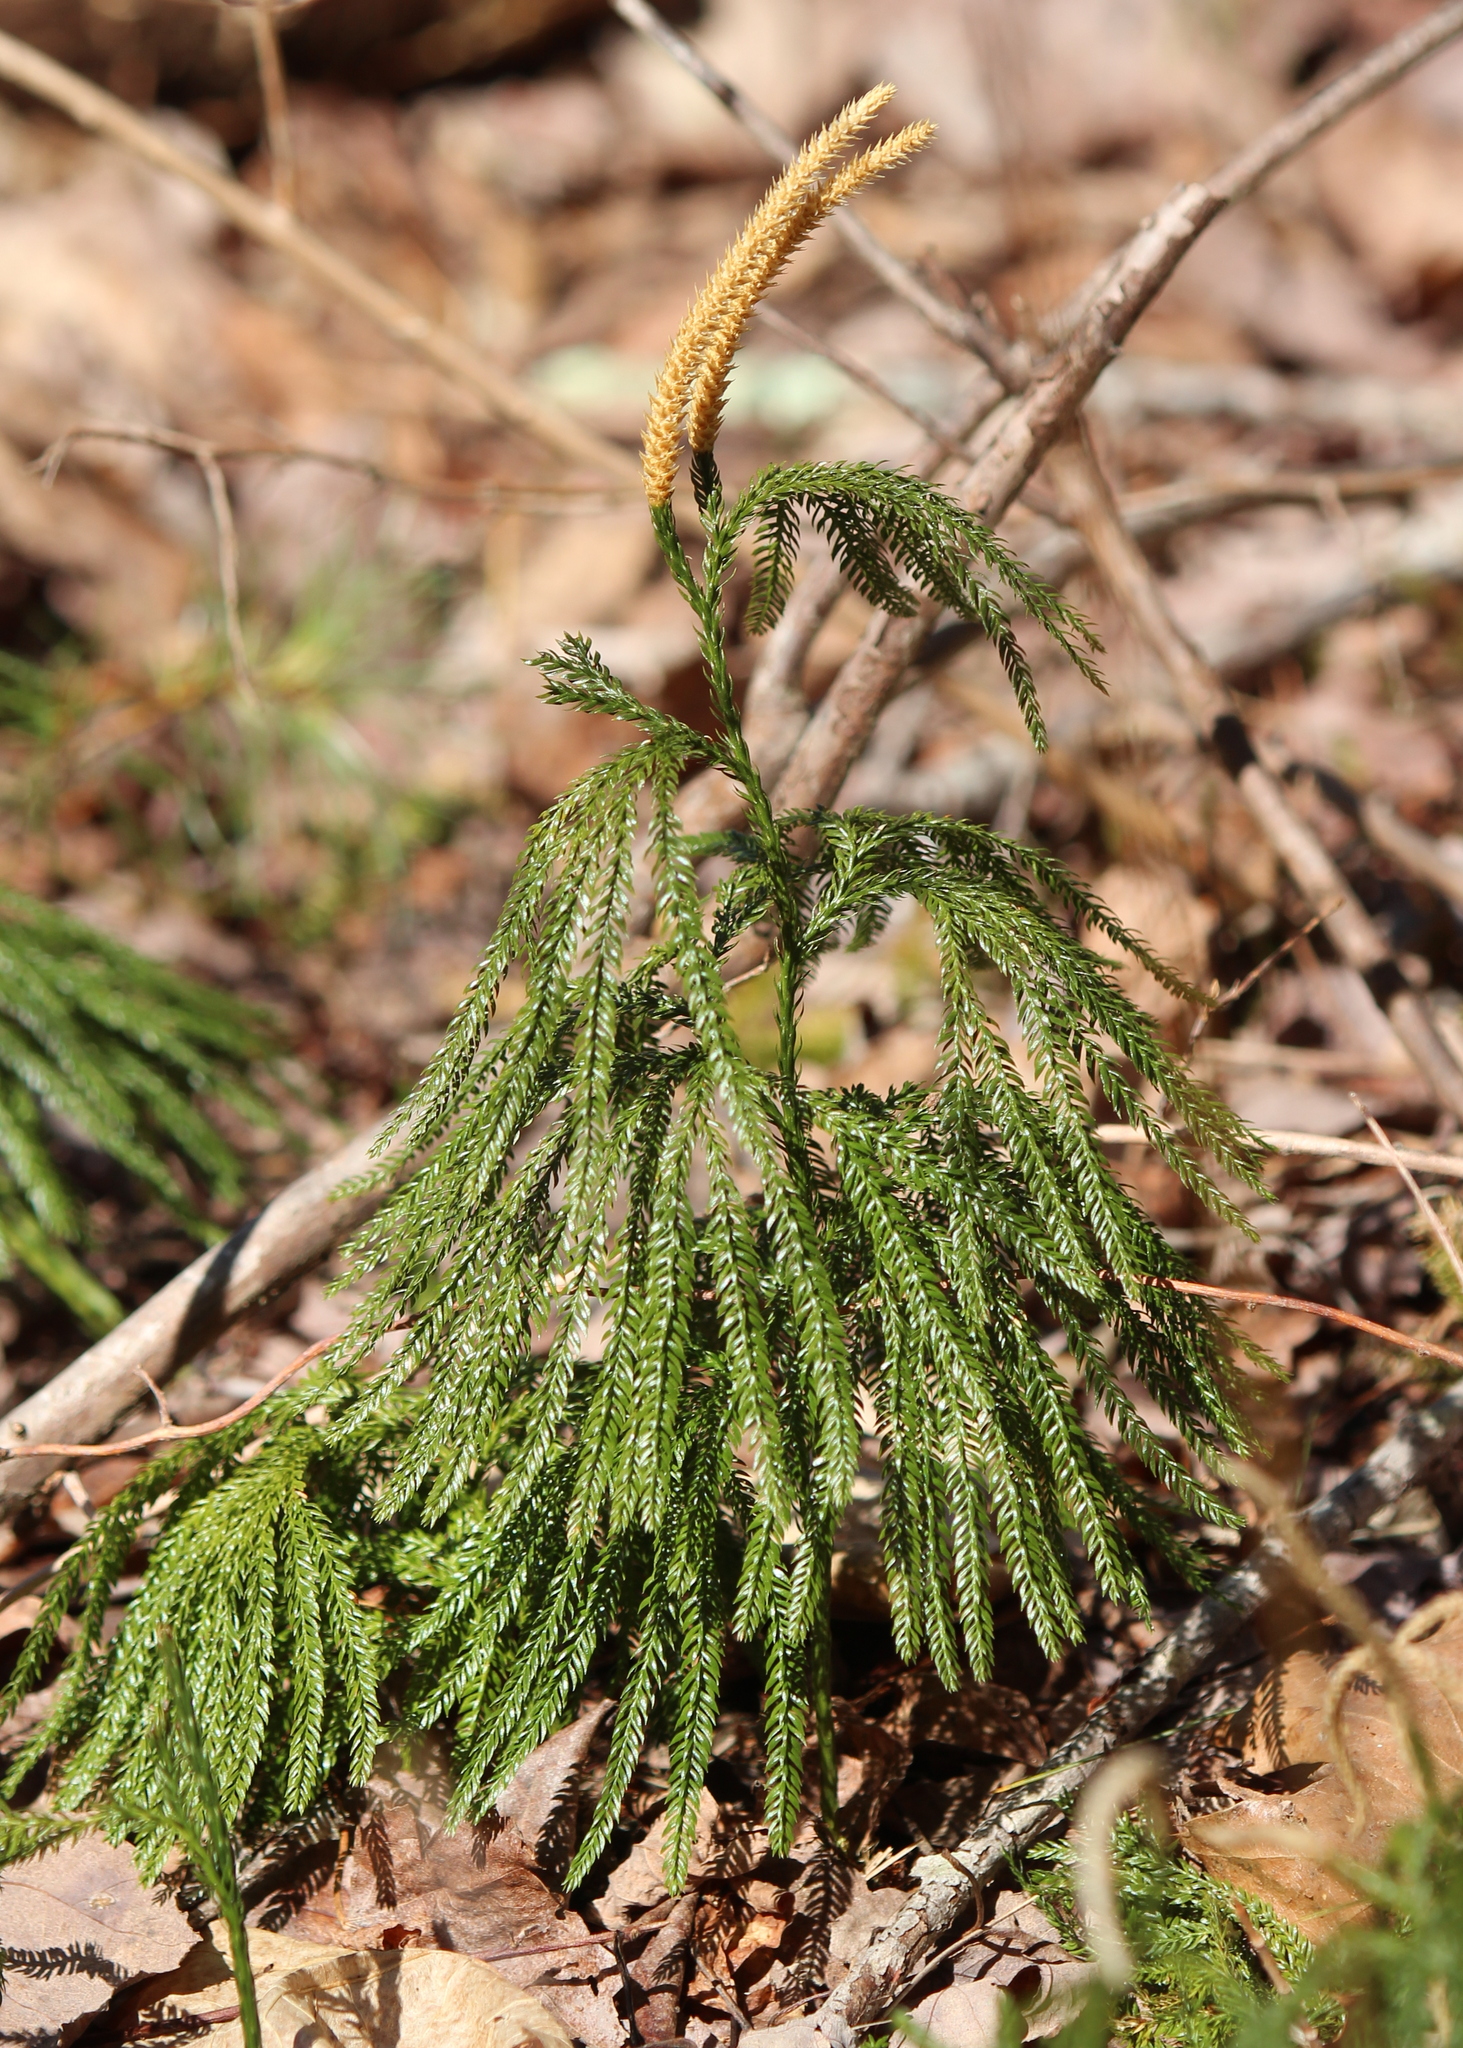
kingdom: Plantae
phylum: Tracheophyta
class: Lycopodiopsida
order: Lycopodiales
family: Lycopodiaceae
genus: Dendrolycopodium
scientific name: Dendrolycopodium obscurum
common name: Common ground-pine
